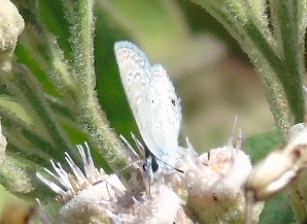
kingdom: Animalia
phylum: Arthropoda
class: Insecta
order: Lepidoptera
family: Lycaenidae
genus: Hemiargus
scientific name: Hemiargus ceraunus
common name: Ceraunus blue
